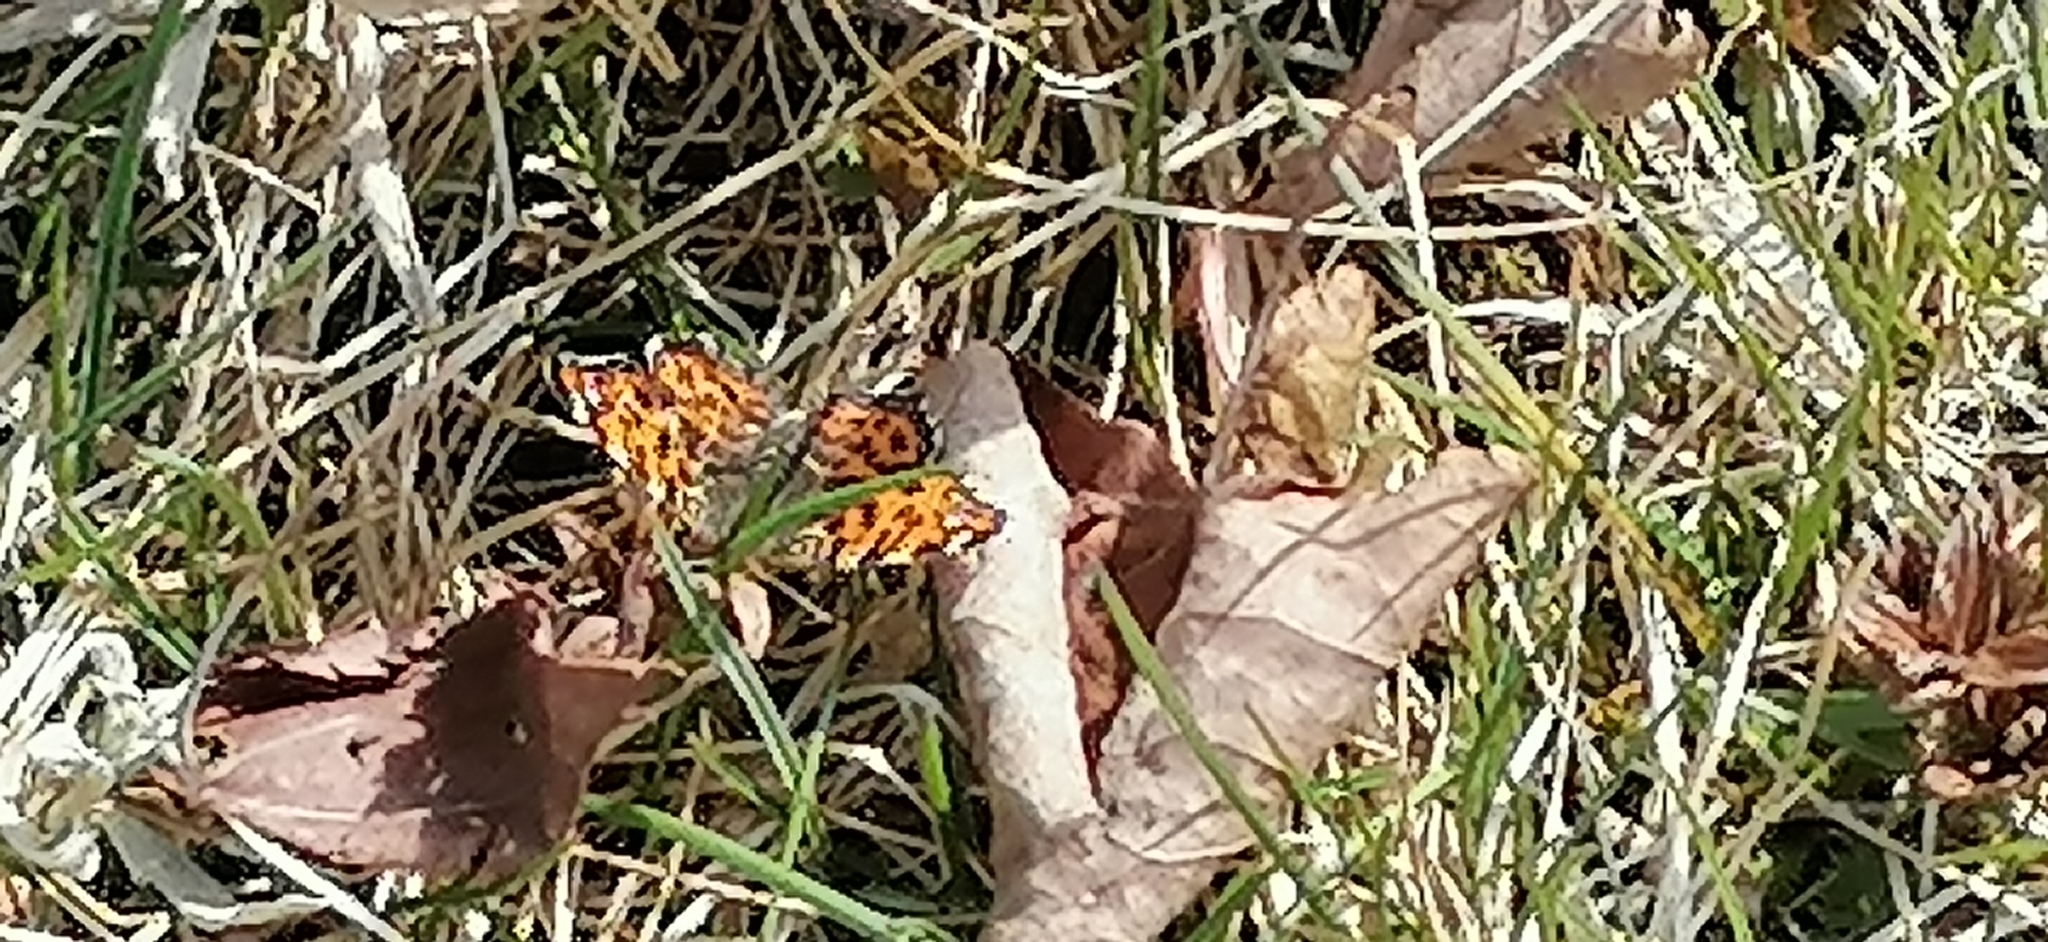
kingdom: Animalia
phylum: Arthropoda
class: Insecta
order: Lepidoptera
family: Nymphalidae
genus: Araschnia
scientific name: Araschnia levana
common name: Map butterfly
